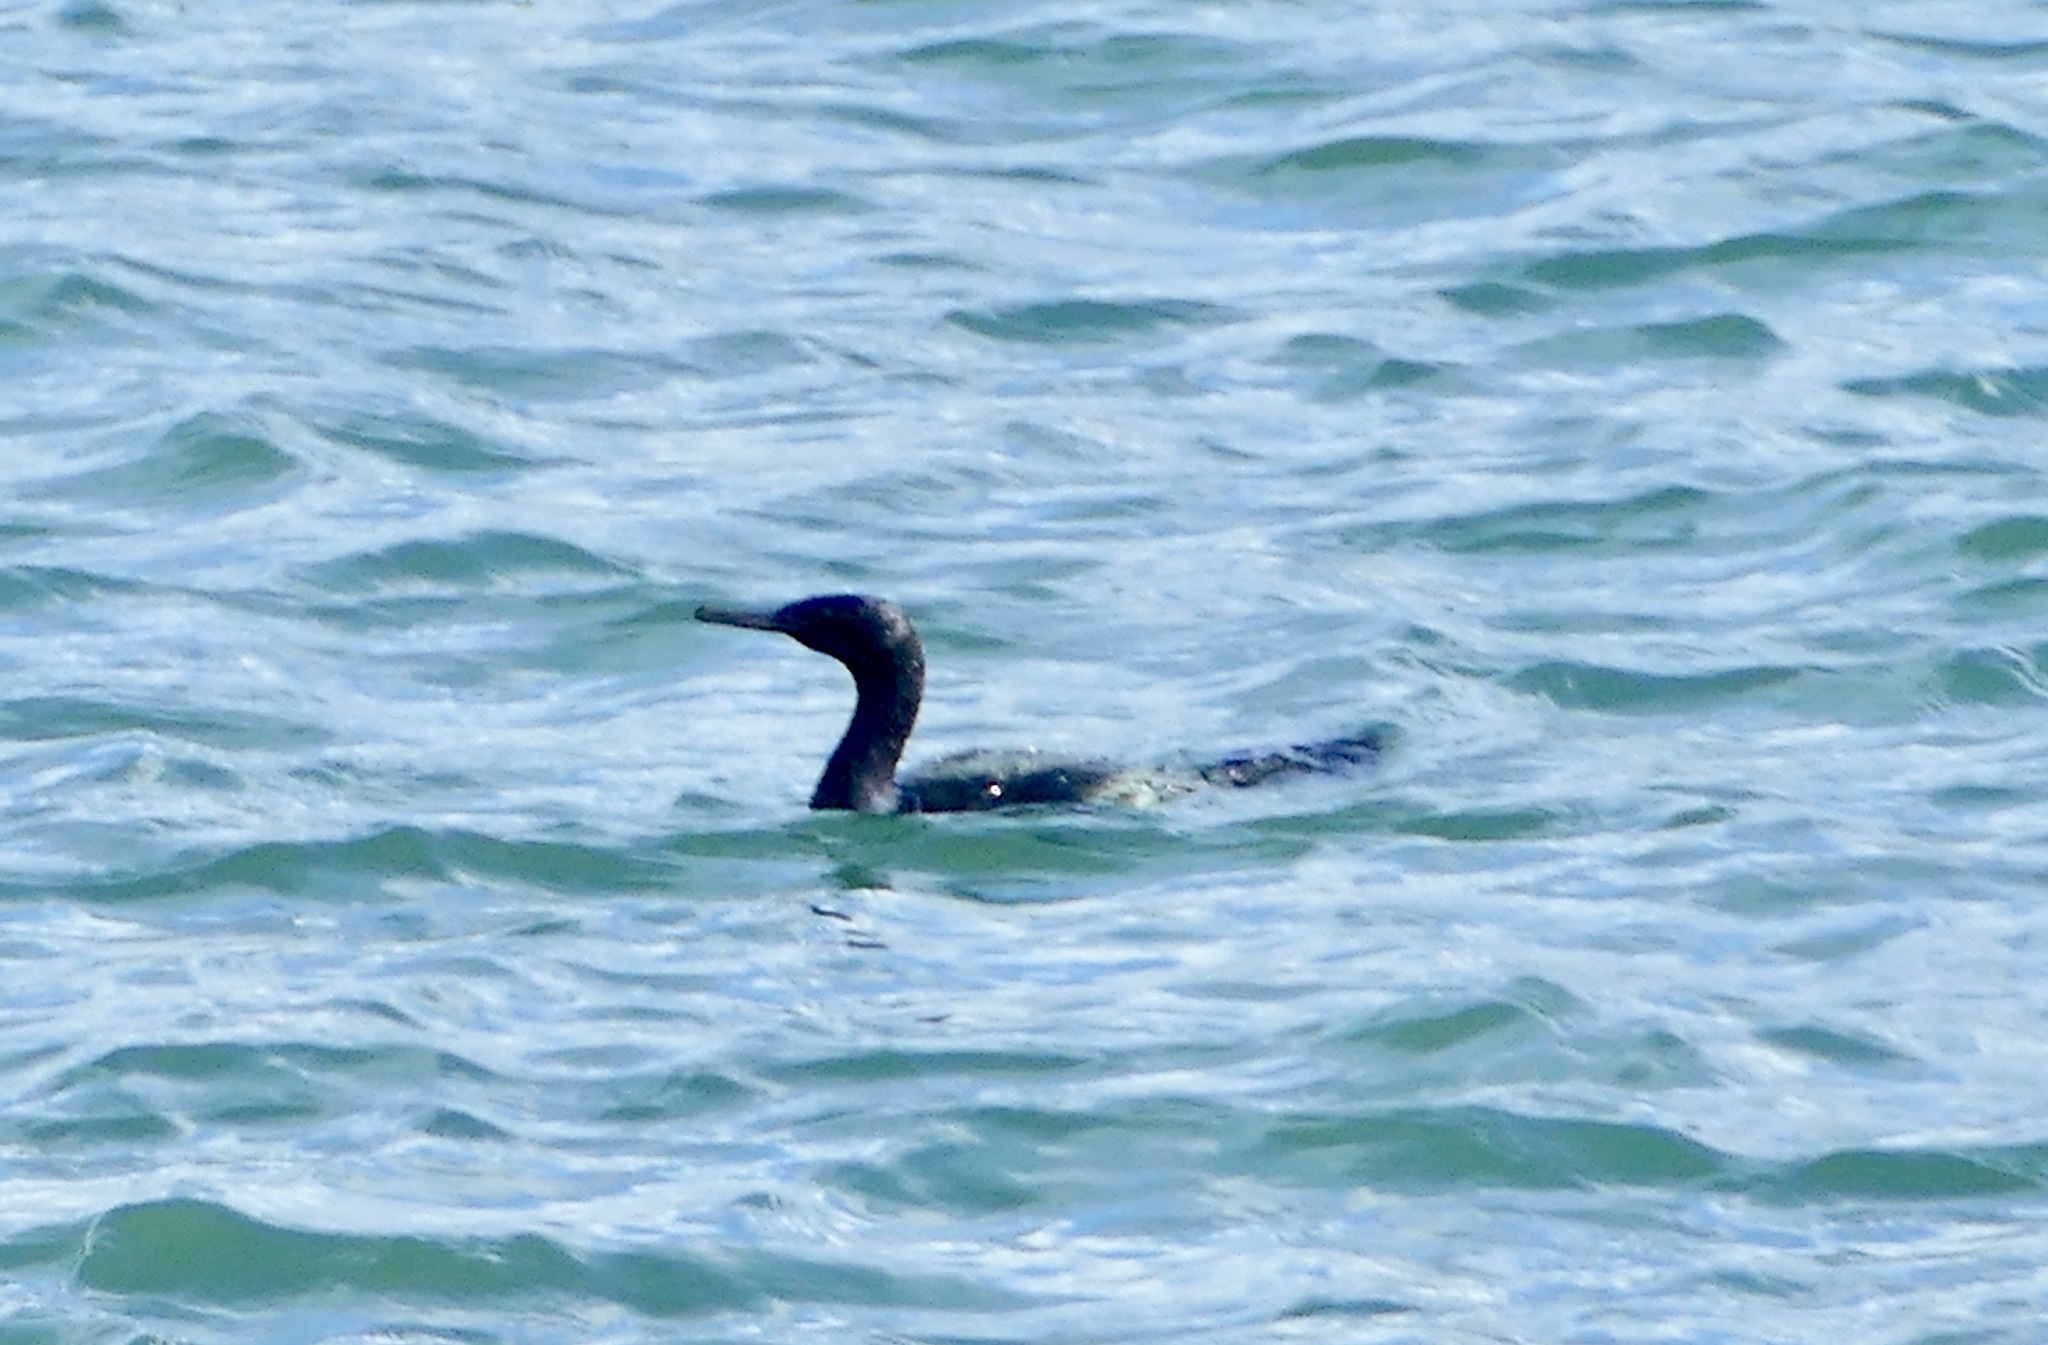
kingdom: Animalia
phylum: Chordata
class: Aves
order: Suliformes
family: Phalacrocoracidae
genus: Phalacrocorax
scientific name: Phalacrocorax pelagicus
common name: Pelagic cormorant
